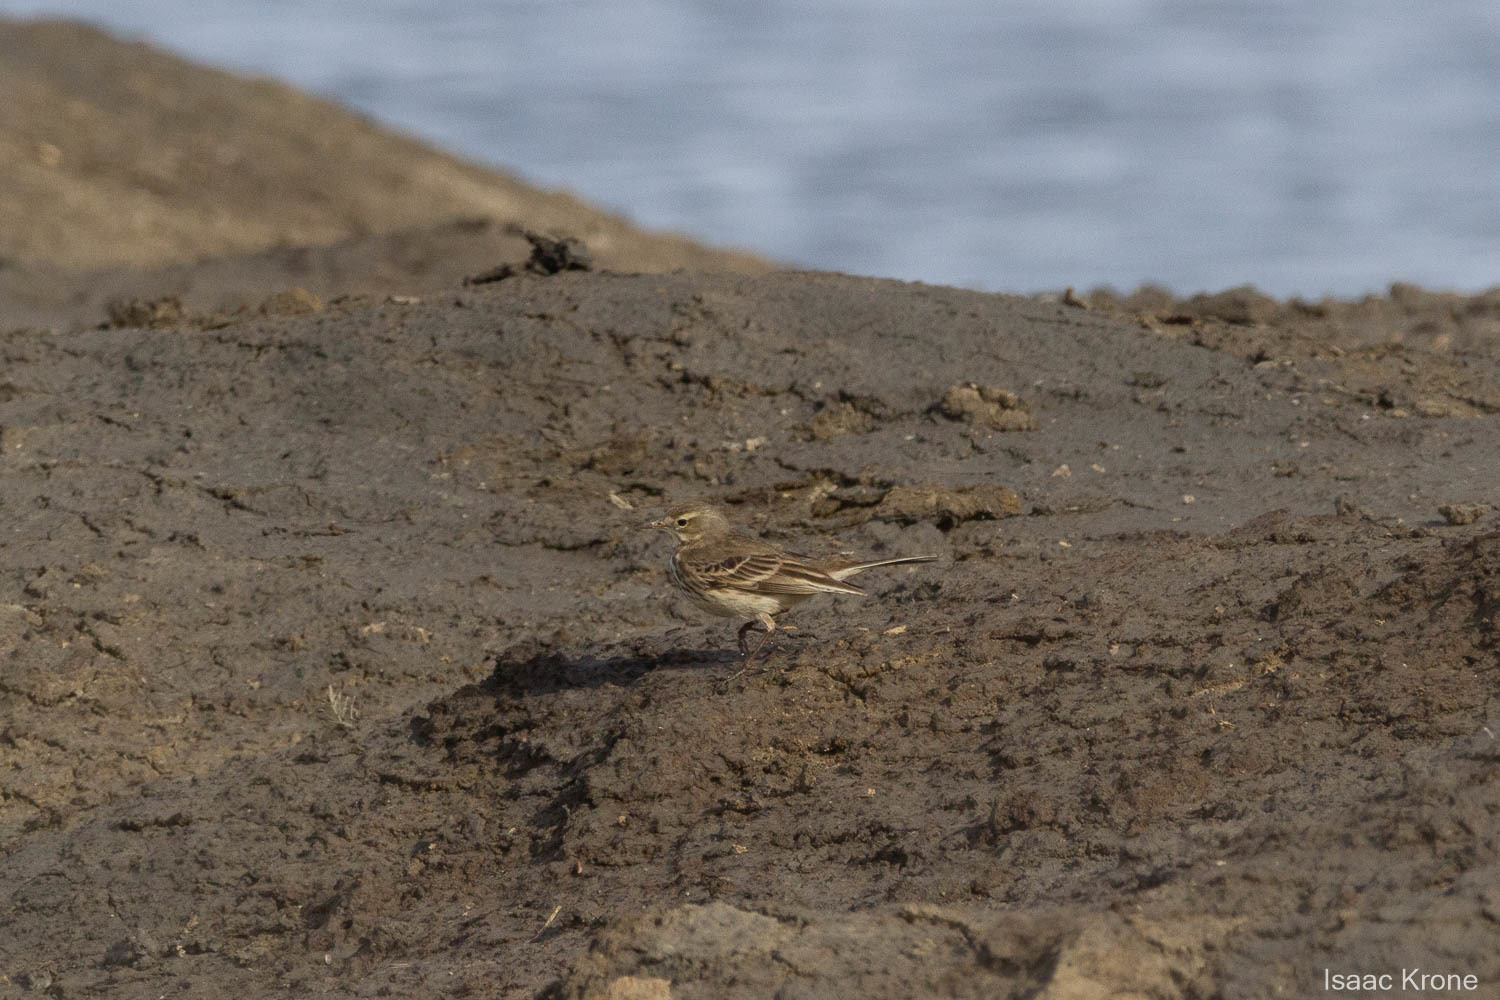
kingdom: Animalia
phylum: Chordata
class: Aves
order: Passeriformes
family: Motacillidae
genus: Anthus
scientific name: Anthus rubescens
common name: Buff-bellied pipit
